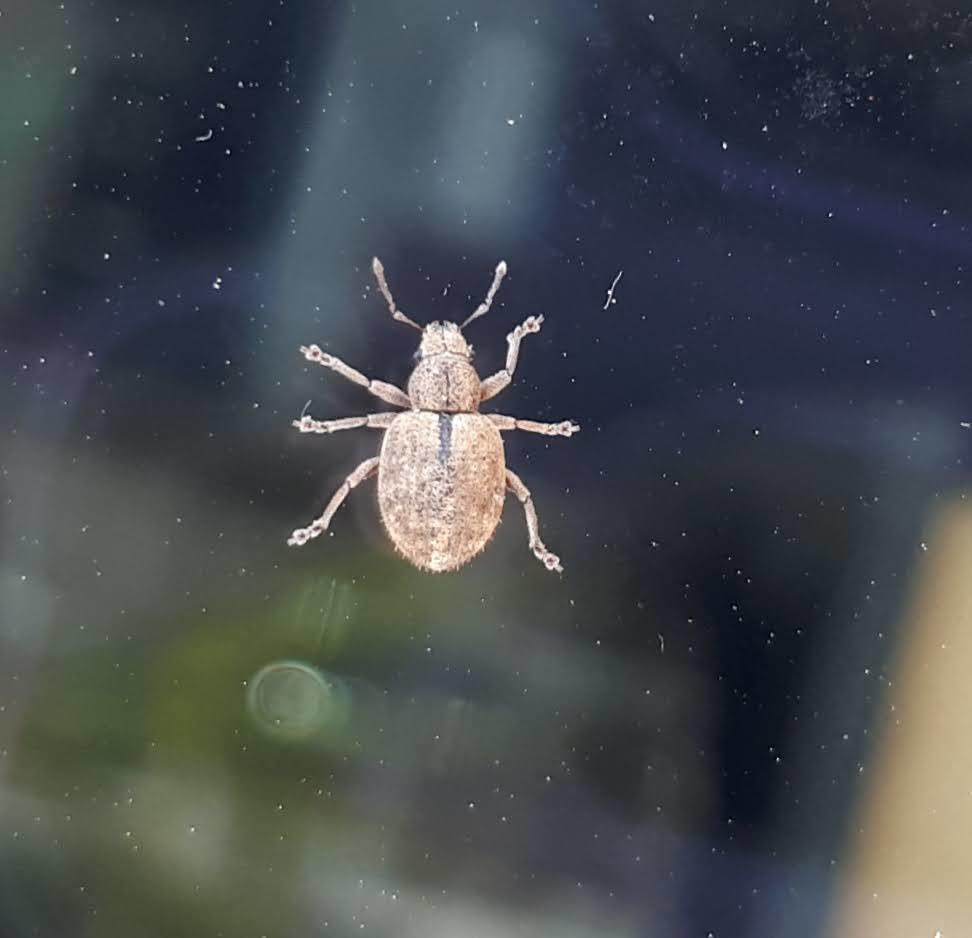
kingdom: Animalia
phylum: Arthropoda
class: Insecta
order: Coleoptera
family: Curculionidae
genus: Strophosoma
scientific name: Strophosoma melanogrammum
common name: Weevil
